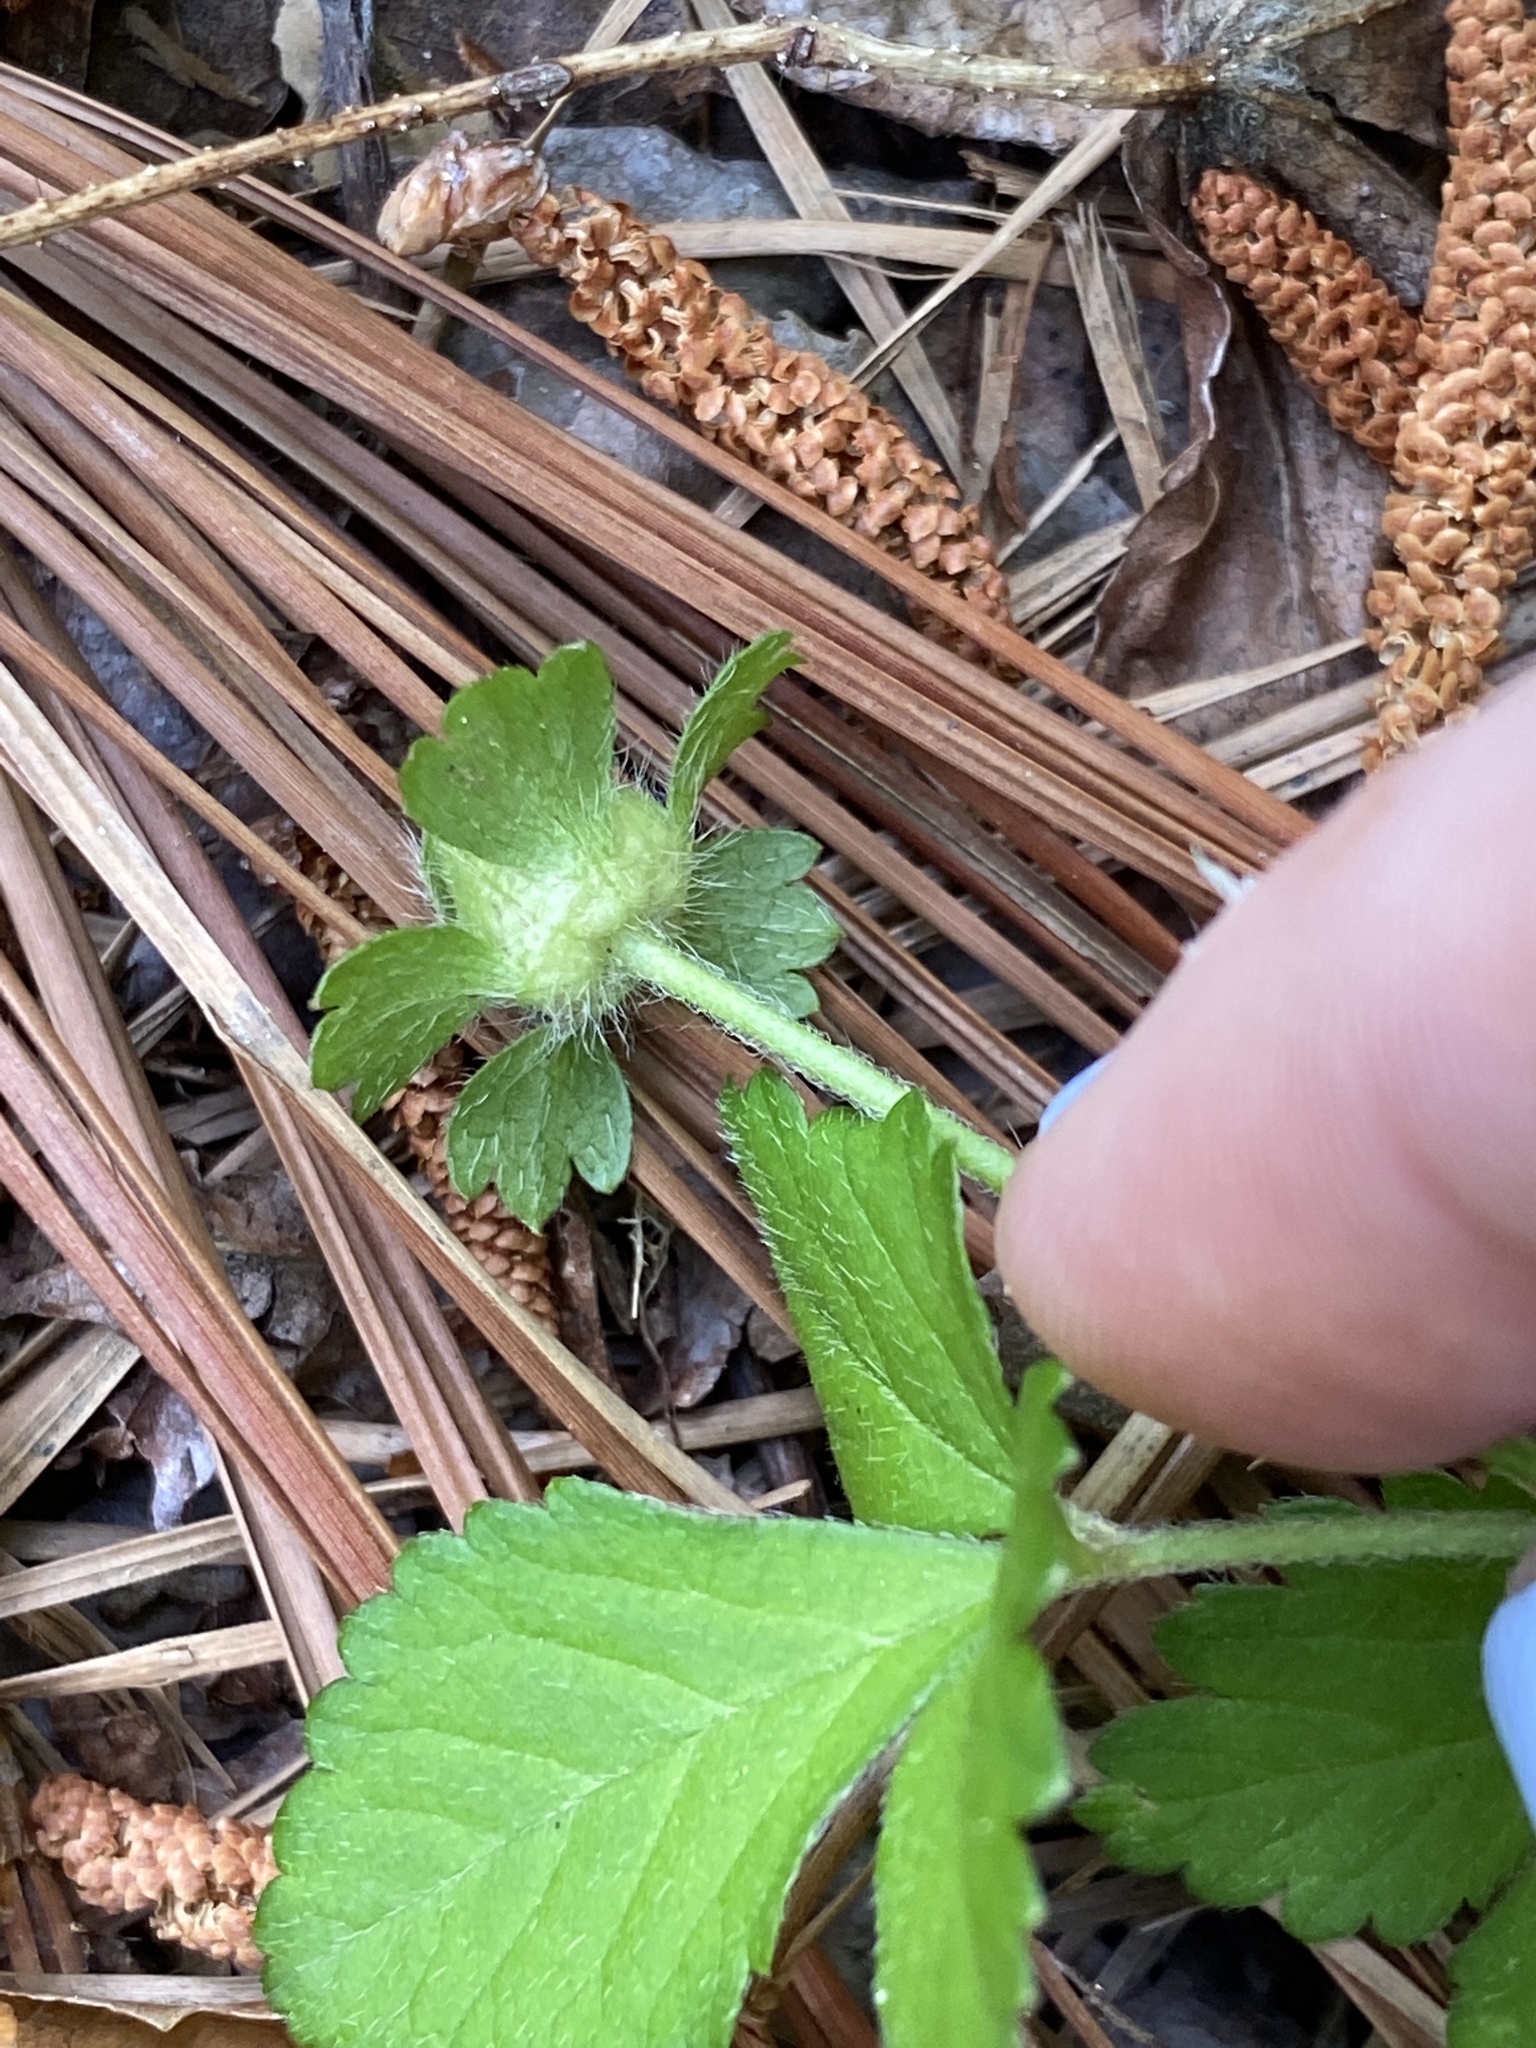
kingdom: Plantae
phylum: Tracheophyta
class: Magnoliopsida
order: Rosales
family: Rosaceae
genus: Potentilla
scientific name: Potentilla indica
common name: Yellow-flowered strawberry
